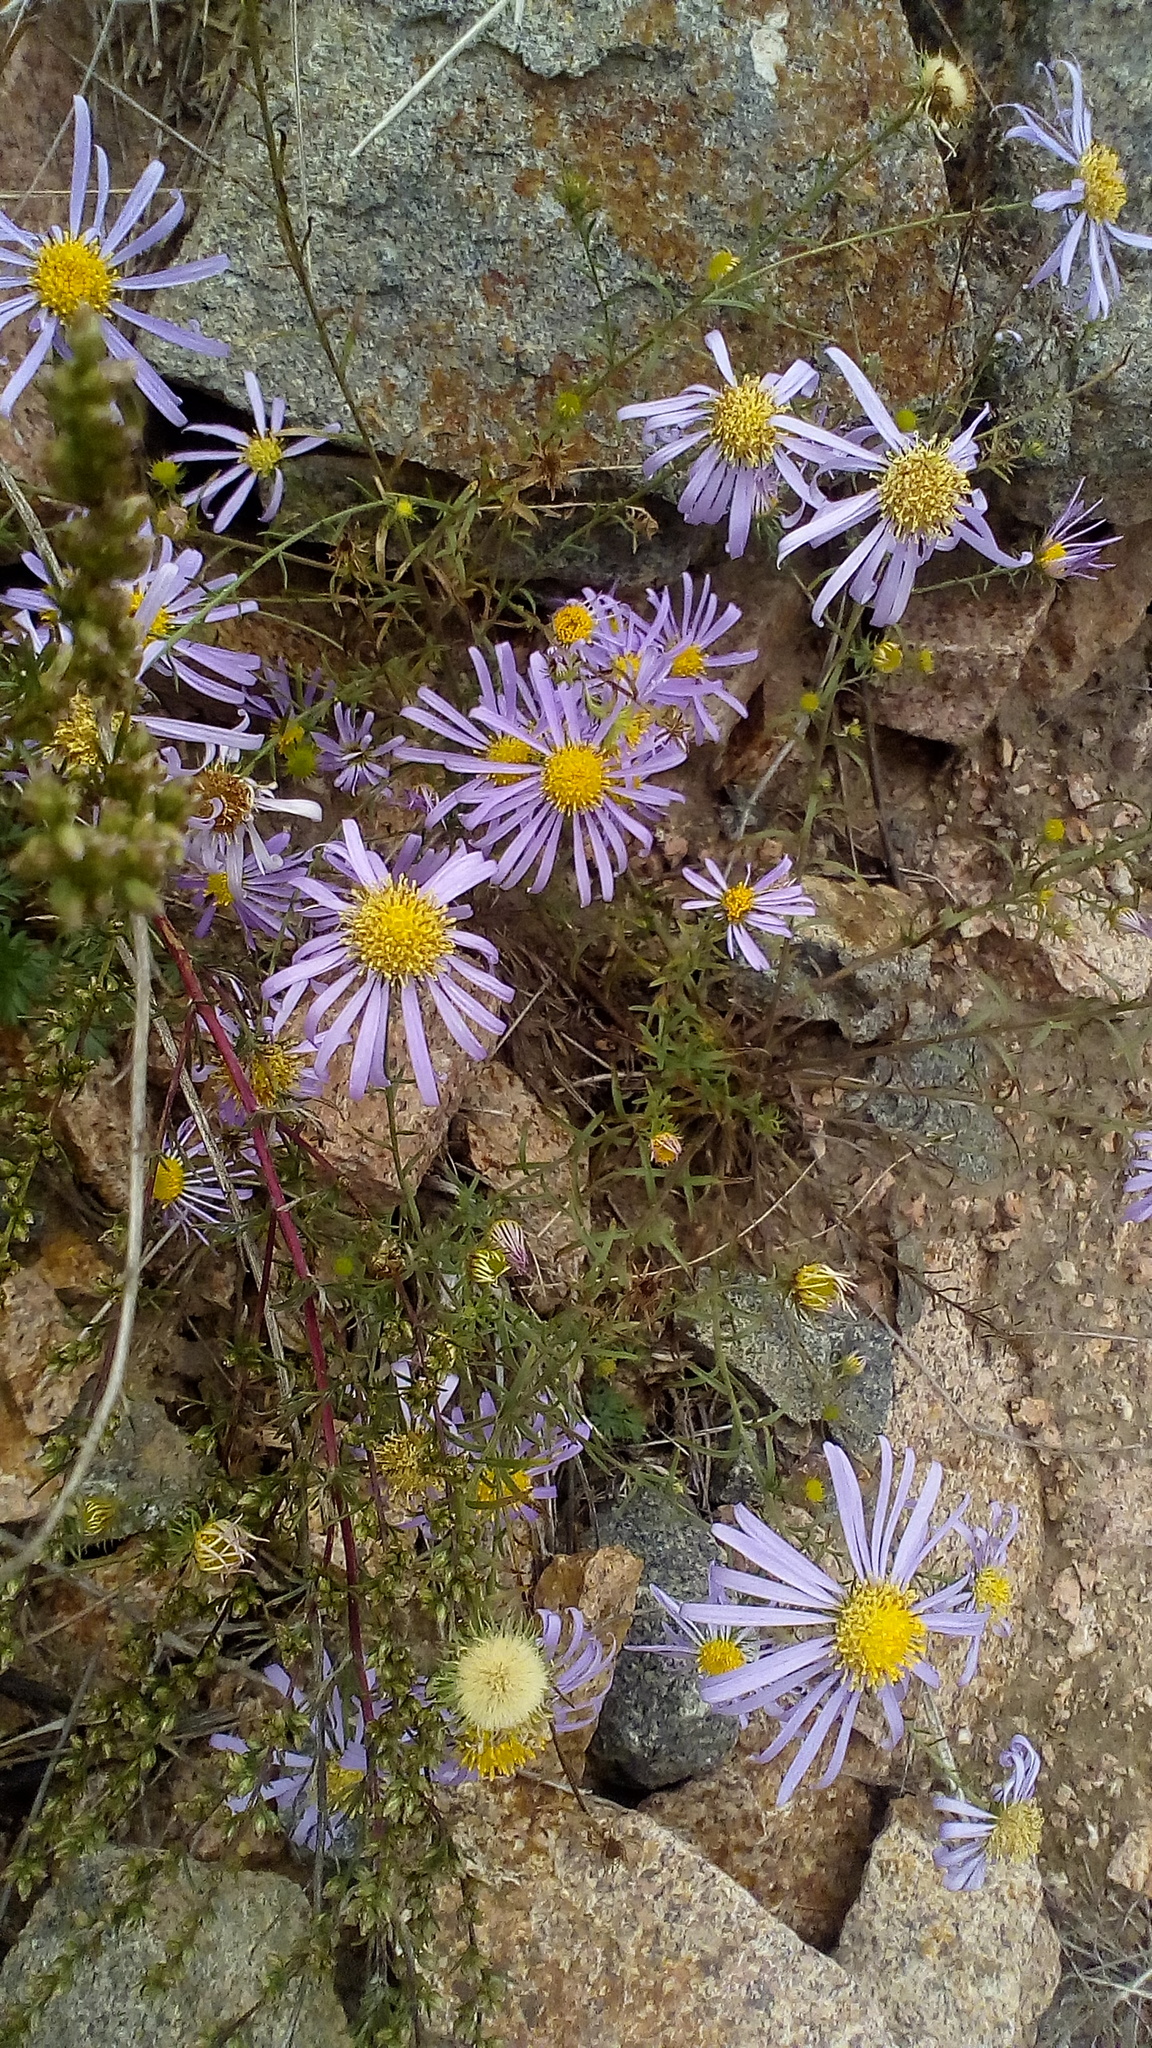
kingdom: Plantae
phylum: Tracheophyta
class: Magnoliopsida
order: Asterales
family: Asteraceae
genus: Aster
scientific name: Aster biennis
